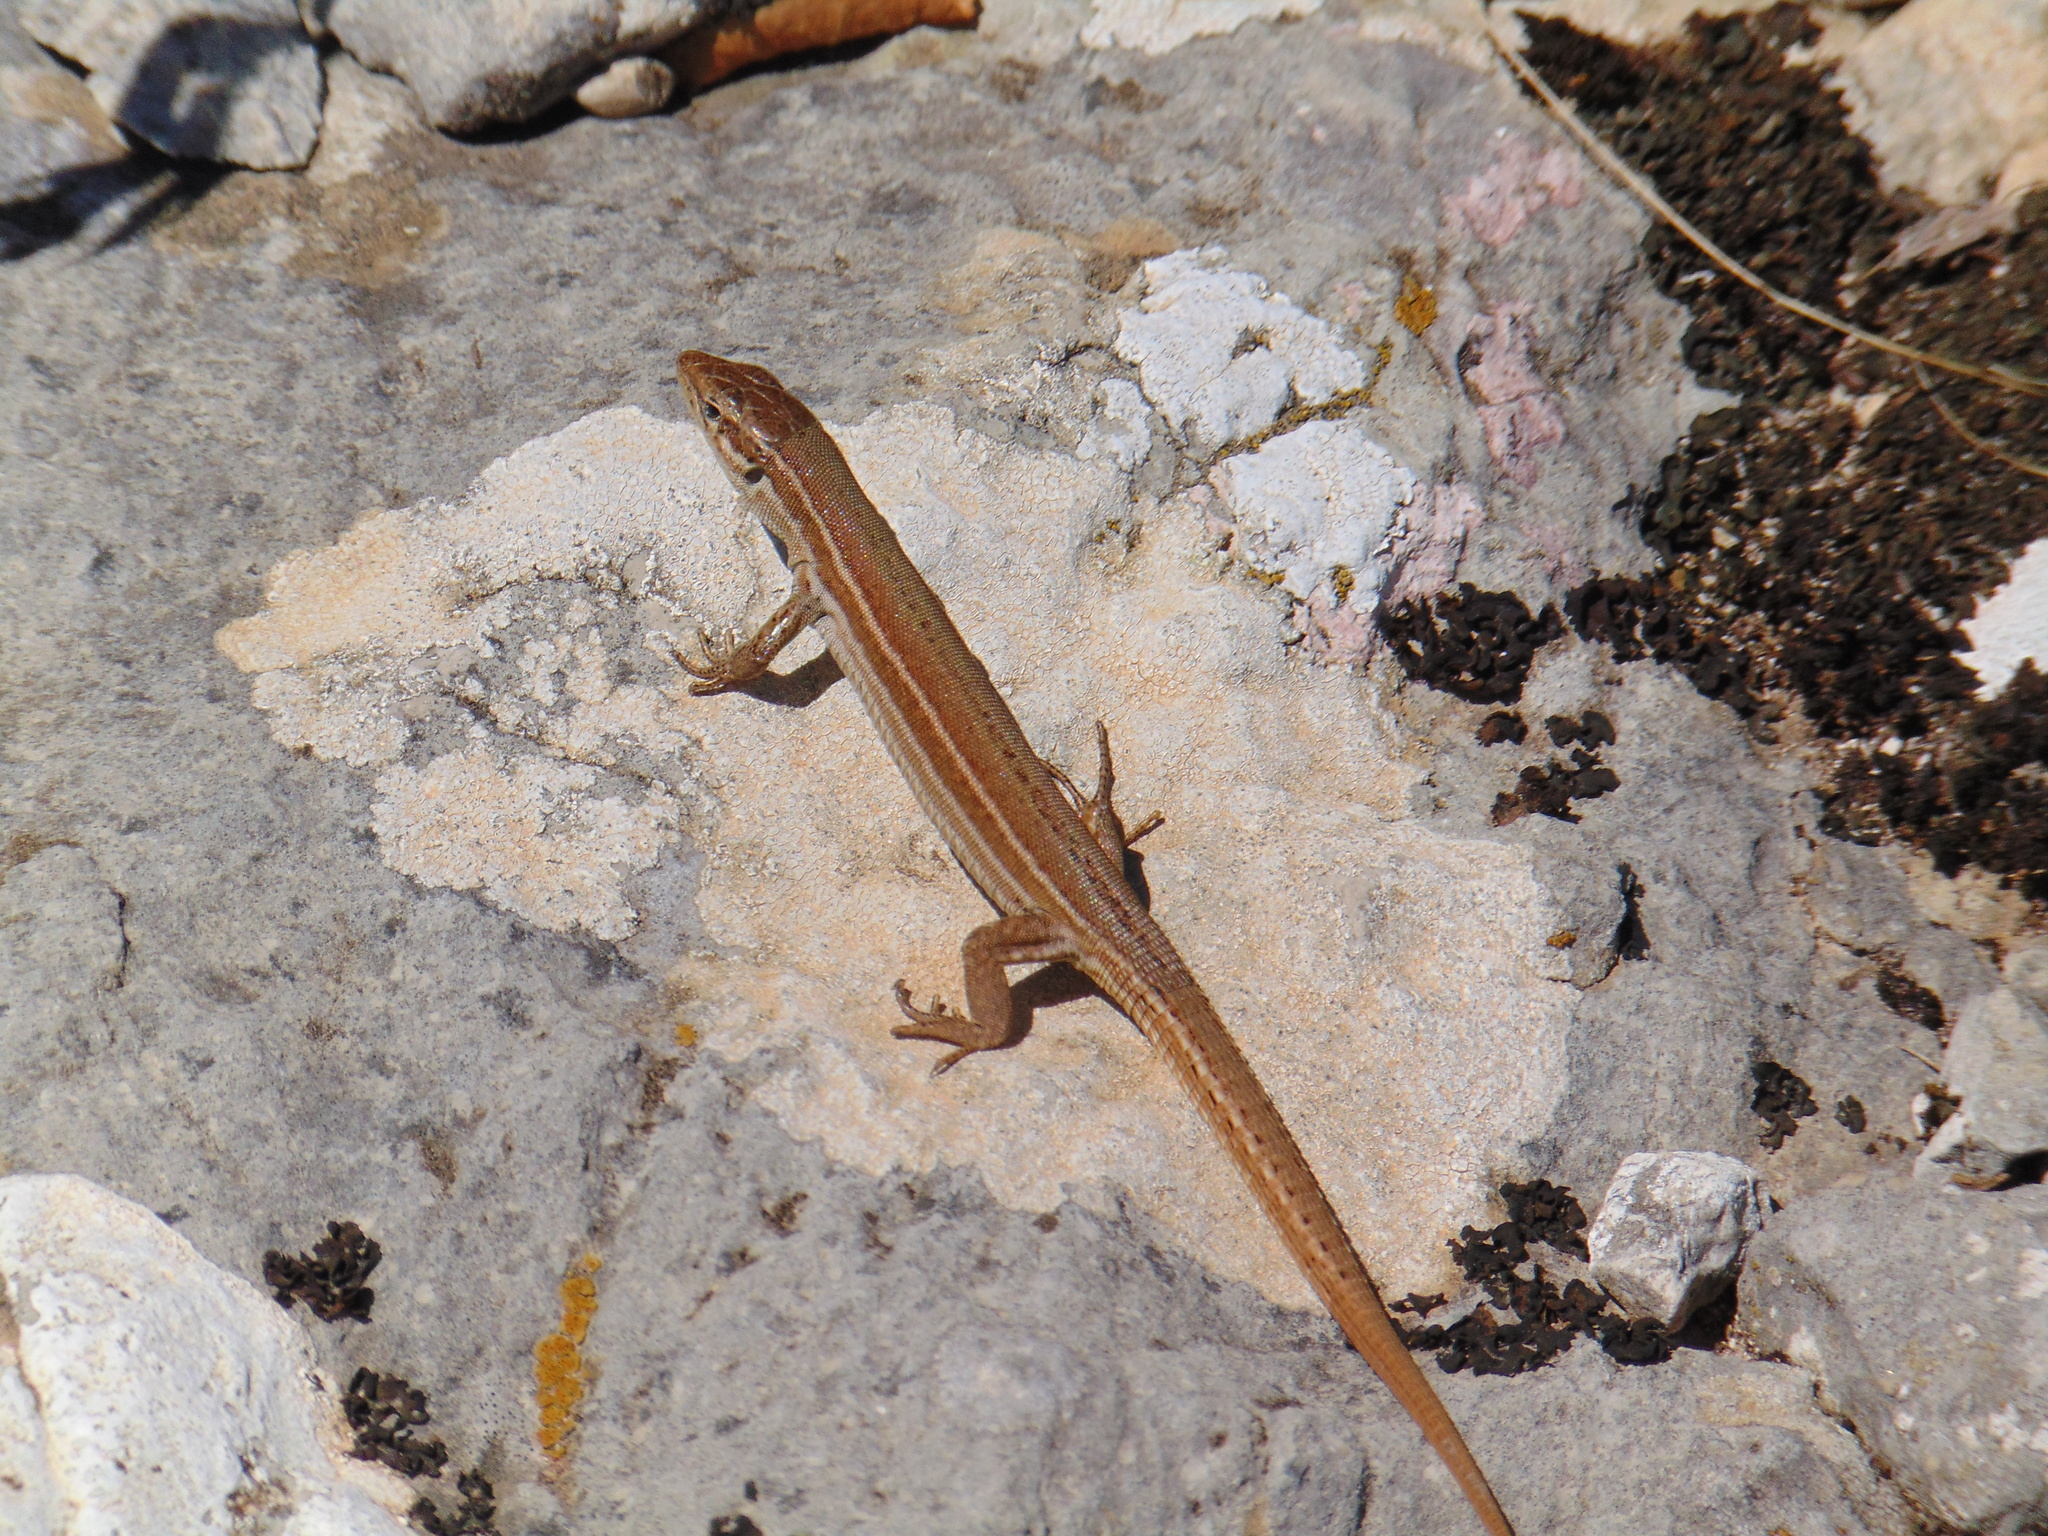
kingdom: Animalia
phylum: Chordata
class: Squamata
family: Lacertidae
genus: Podarcis
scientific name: Podarcis melisellensis
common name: Dalmatian wall lizard
